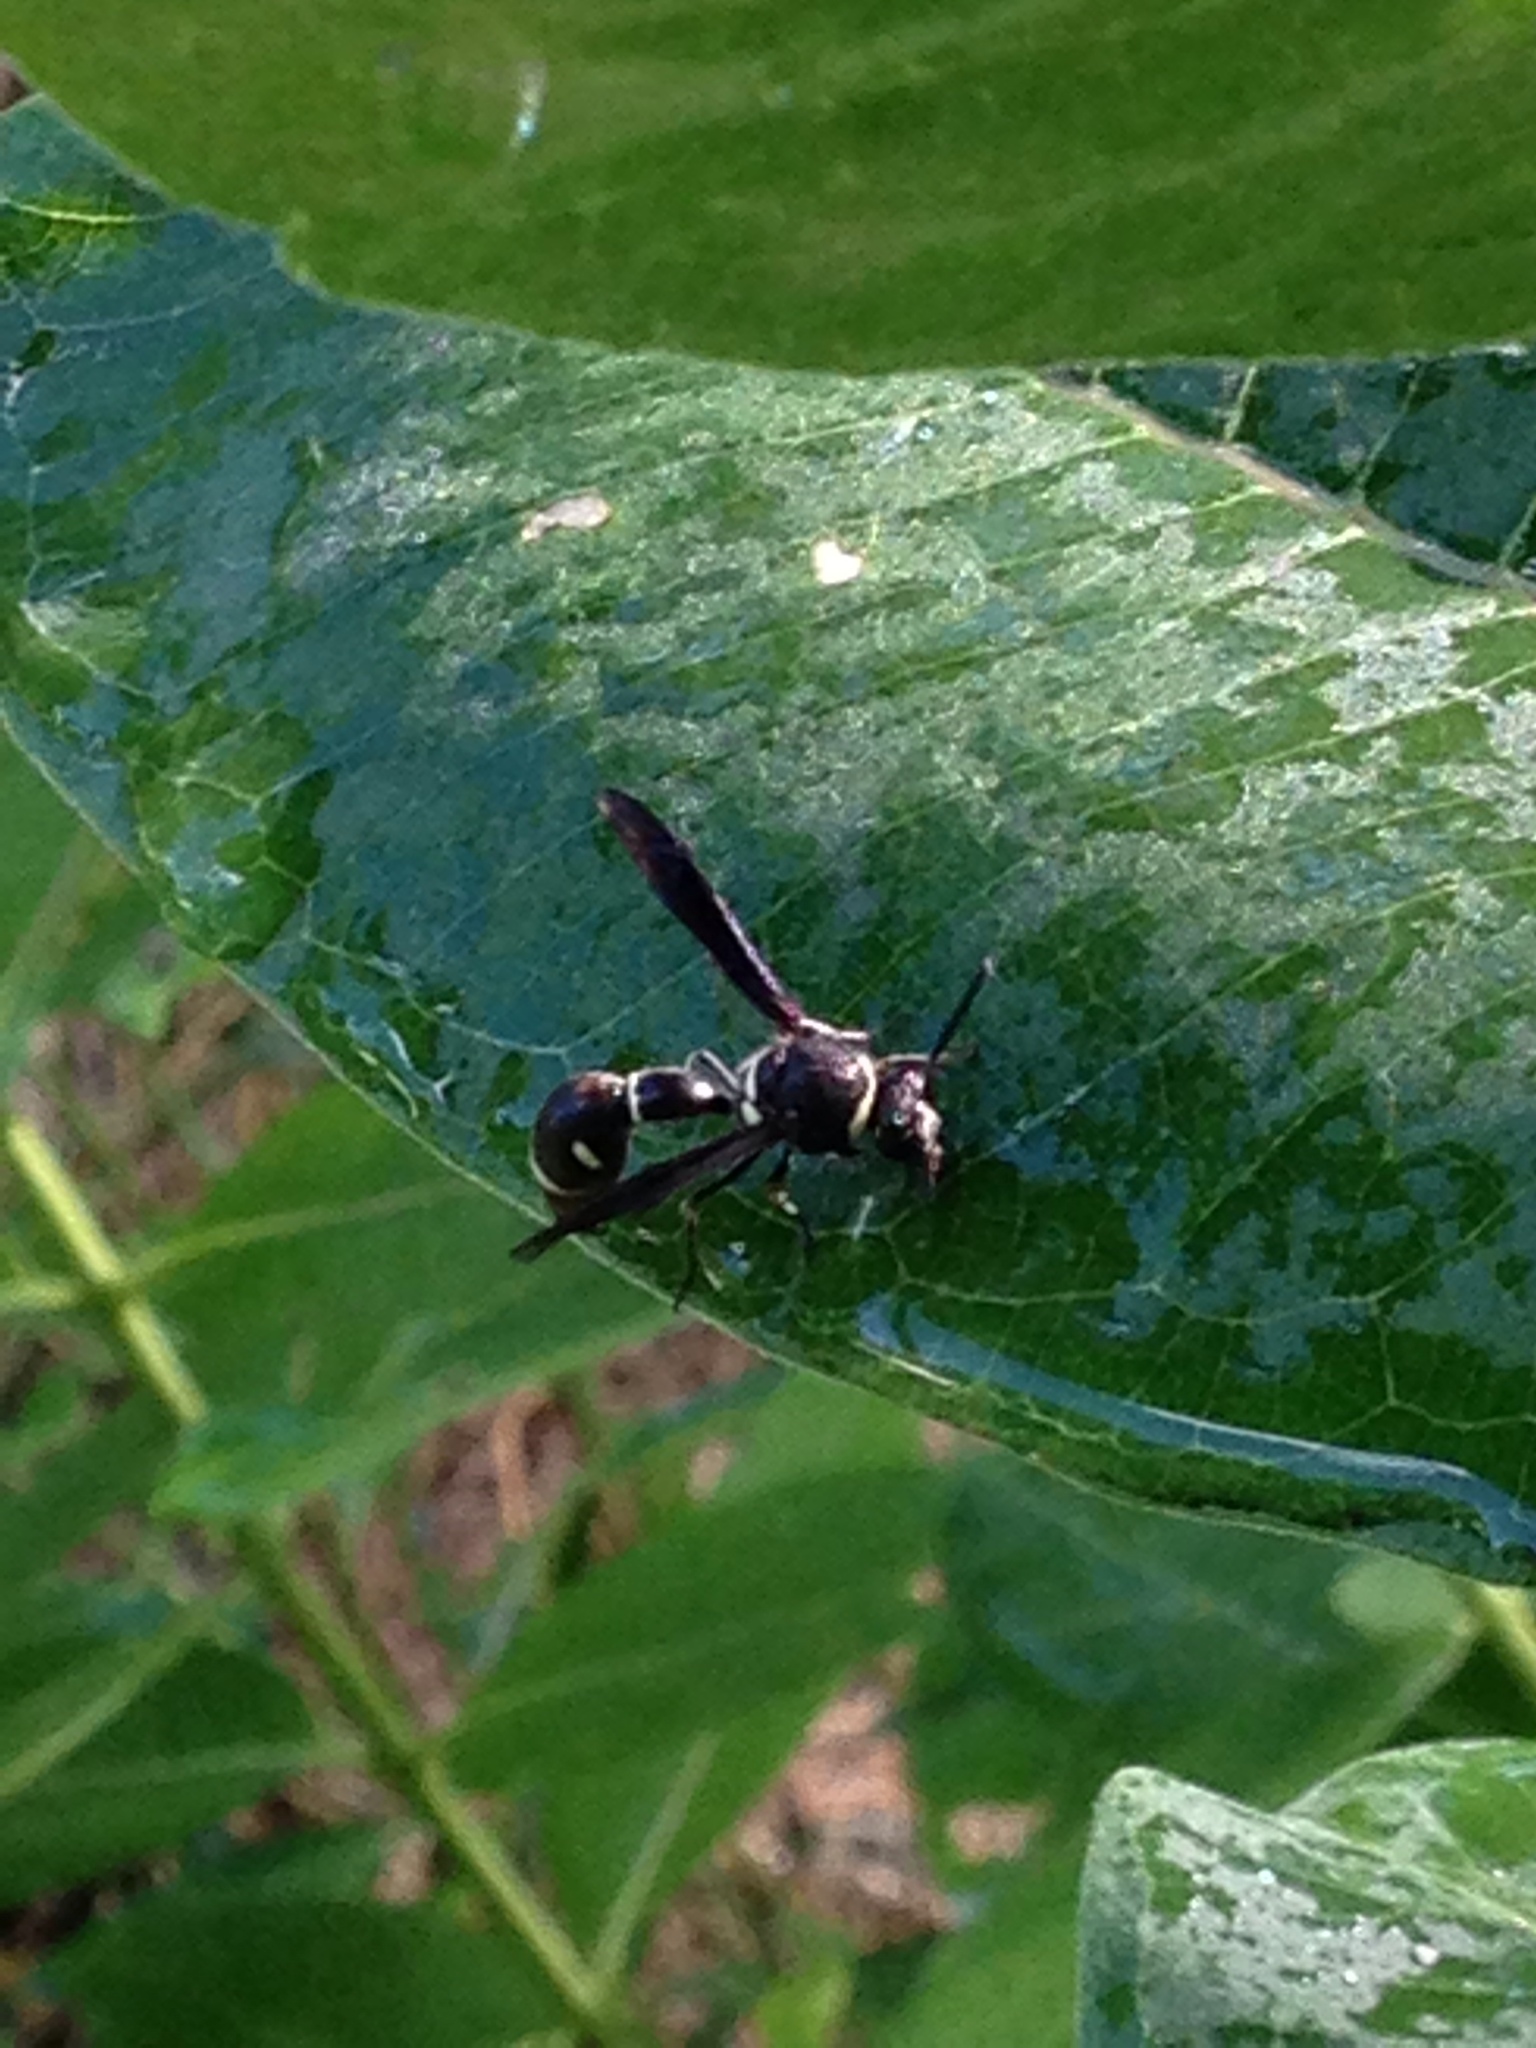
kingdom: Animalia
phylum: Arthropoda
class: Insecta
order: Hymenoptera
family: Vespidae
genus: Eumenes
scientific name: Eumenes fraternus
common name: Fraternal potter wasp
